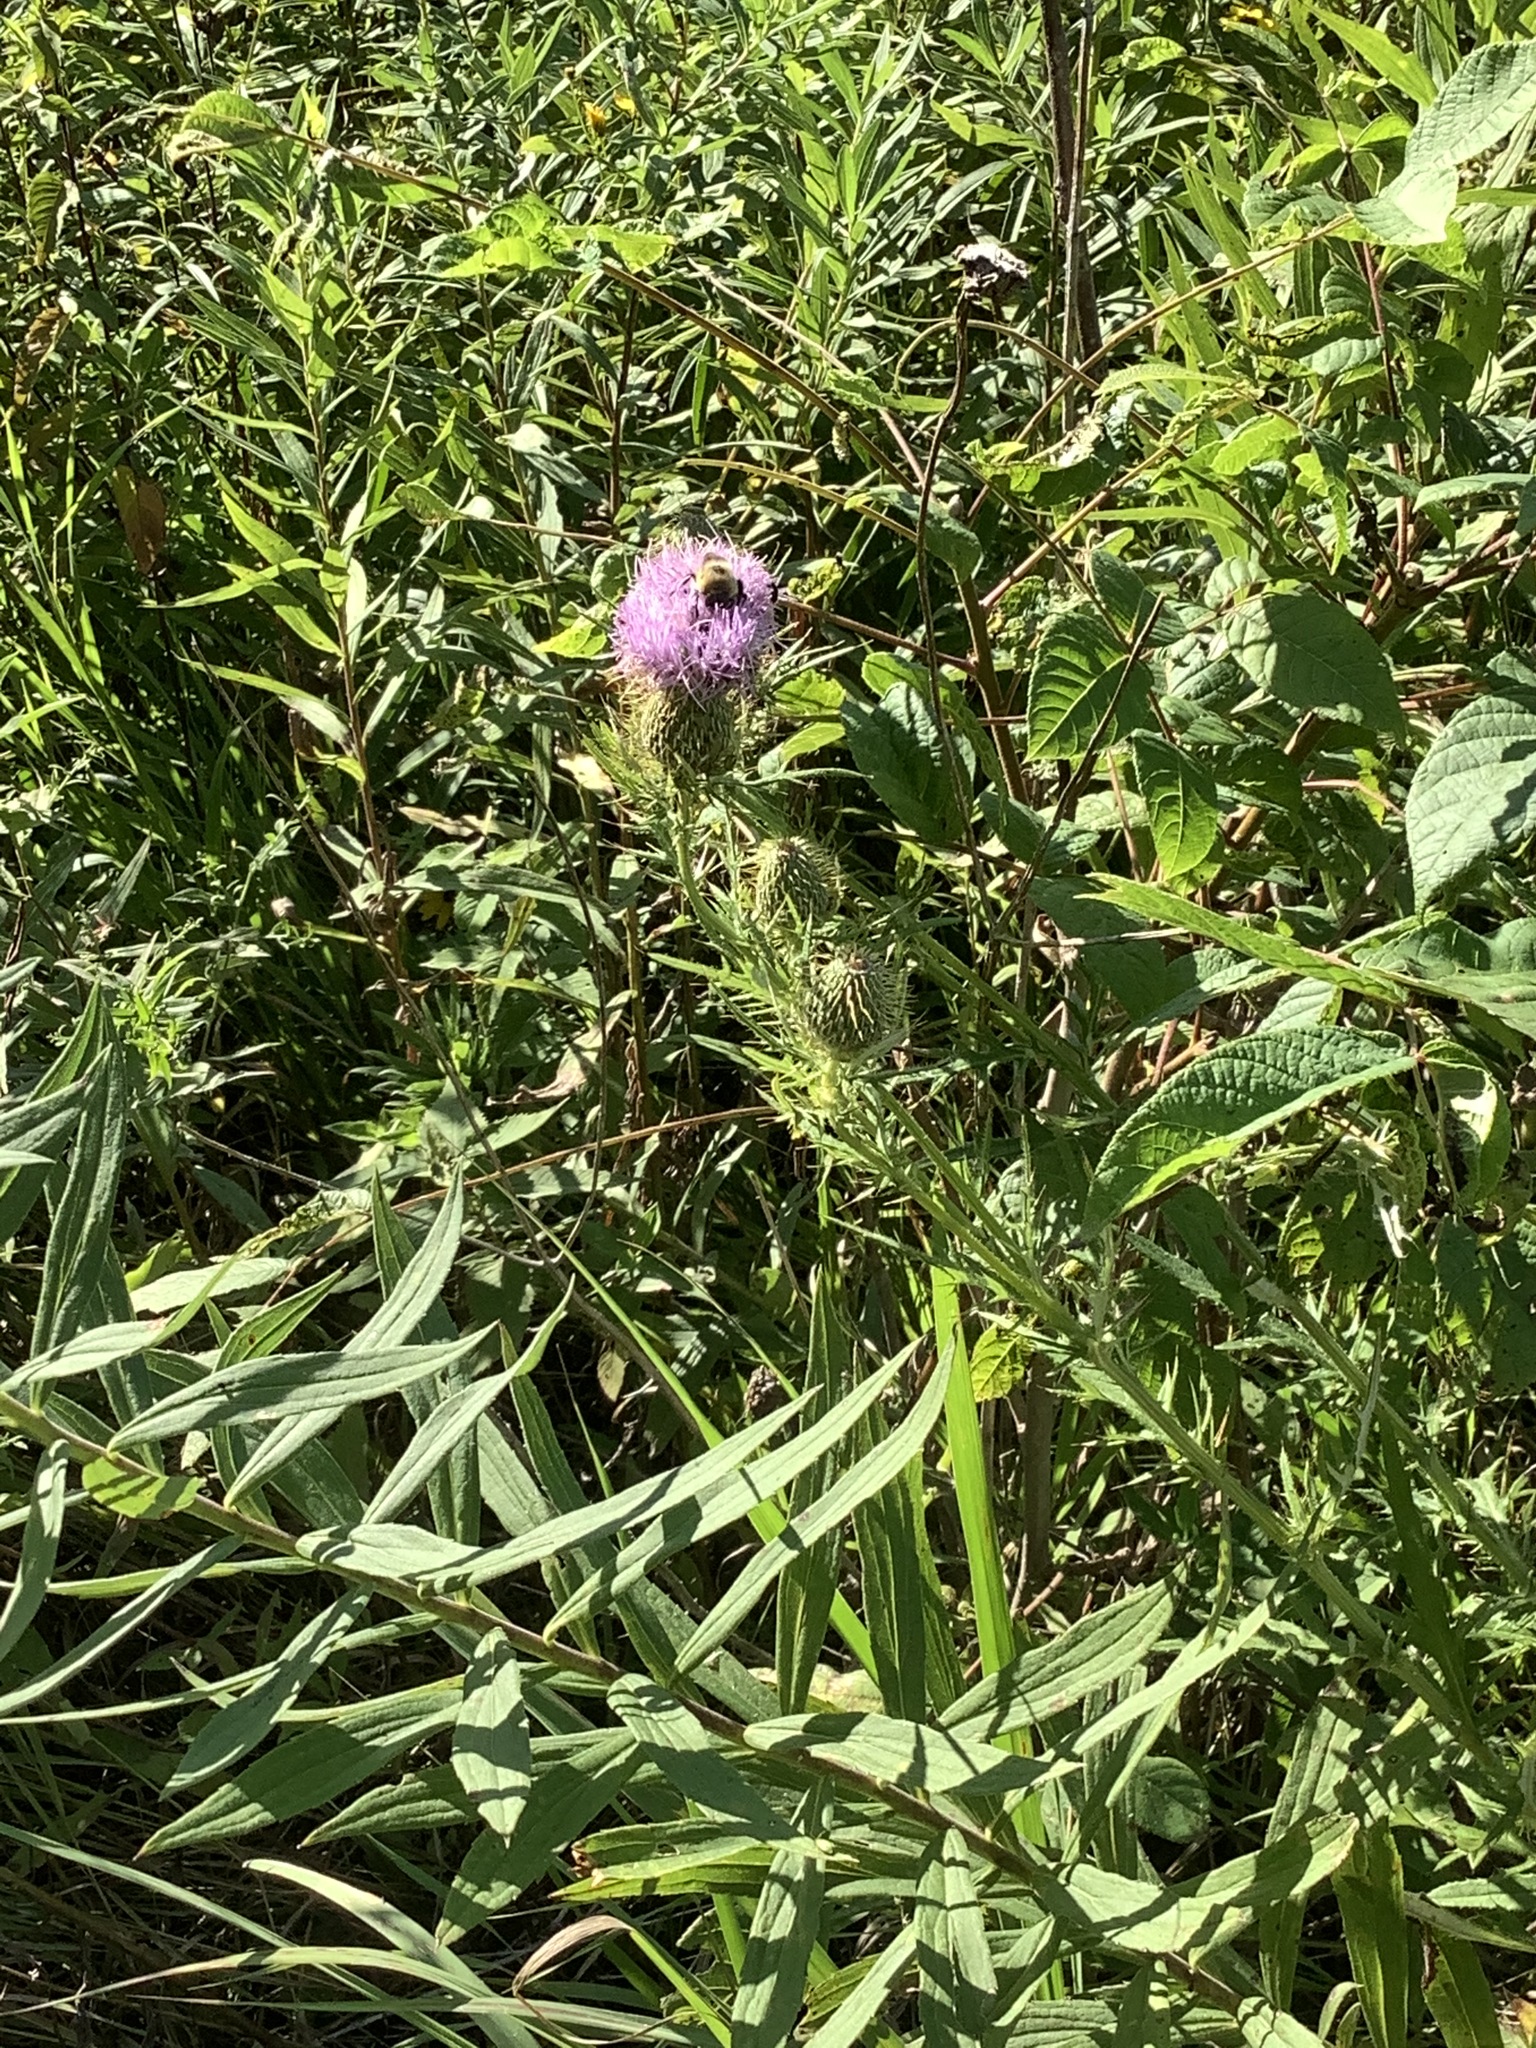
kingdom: Plantae
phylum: Tracheophyta
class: Magnoliopsida
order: Asterales
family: Asteraceae
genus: Cirsium
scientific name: Cirsium discolor
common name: Field thistle
